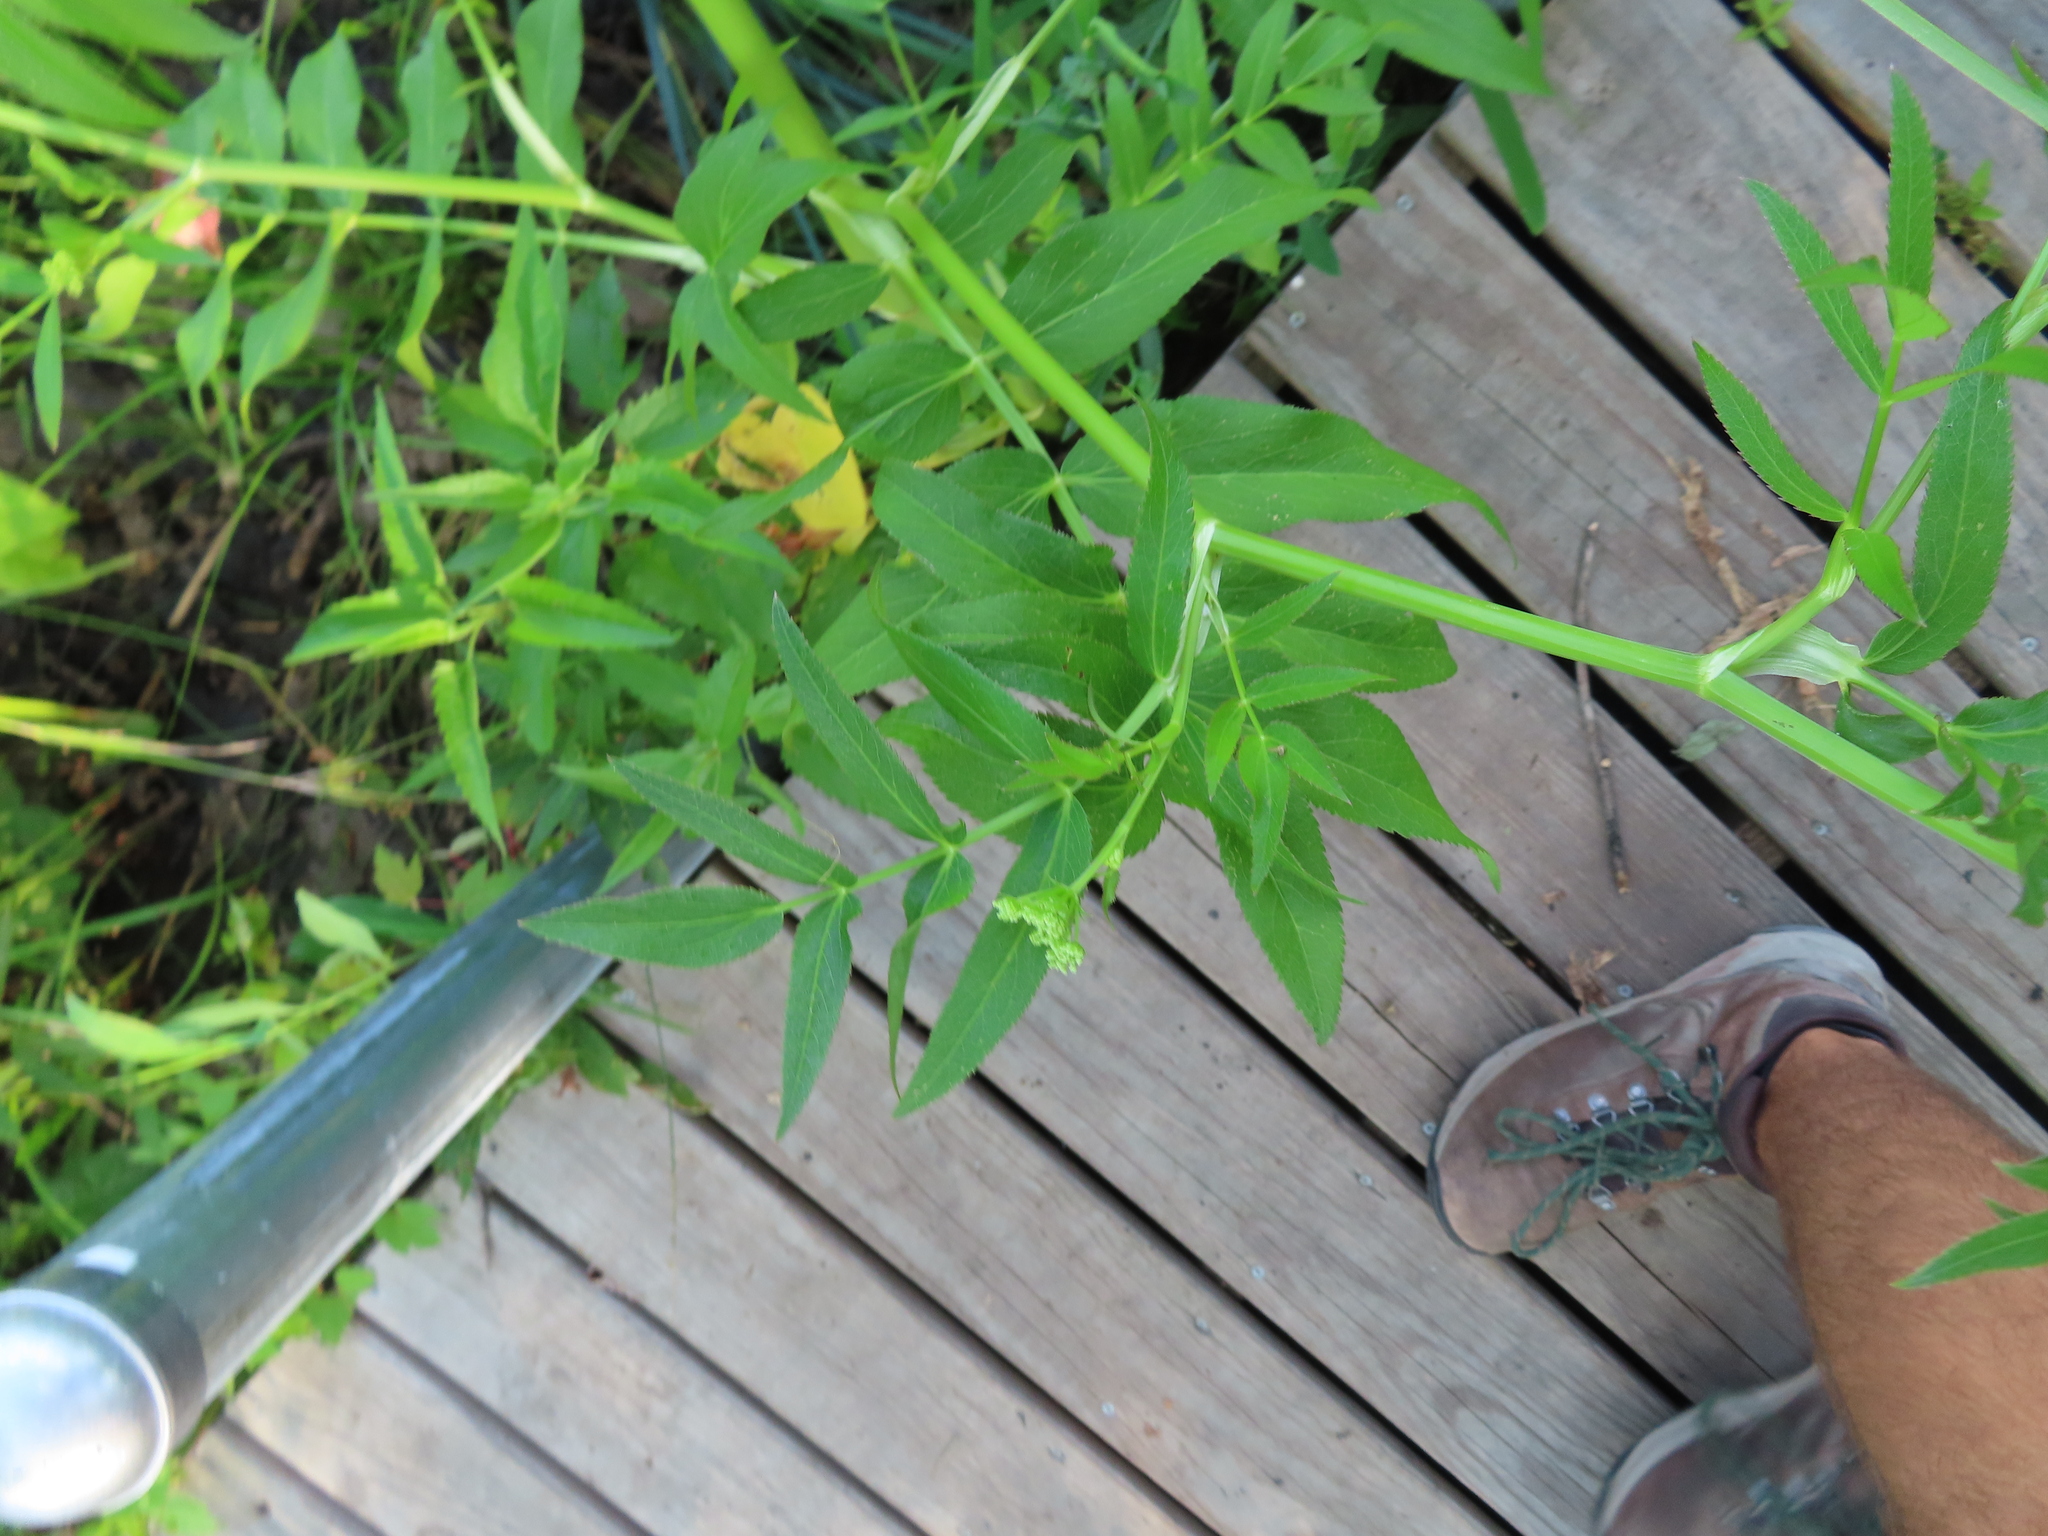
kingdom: Plantae
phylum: Tracheophyta
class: Magnoliopsida
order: Apiales
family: Apiaceae
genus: Sium
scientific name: Sium suave
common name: Hemlock water-parsnip
